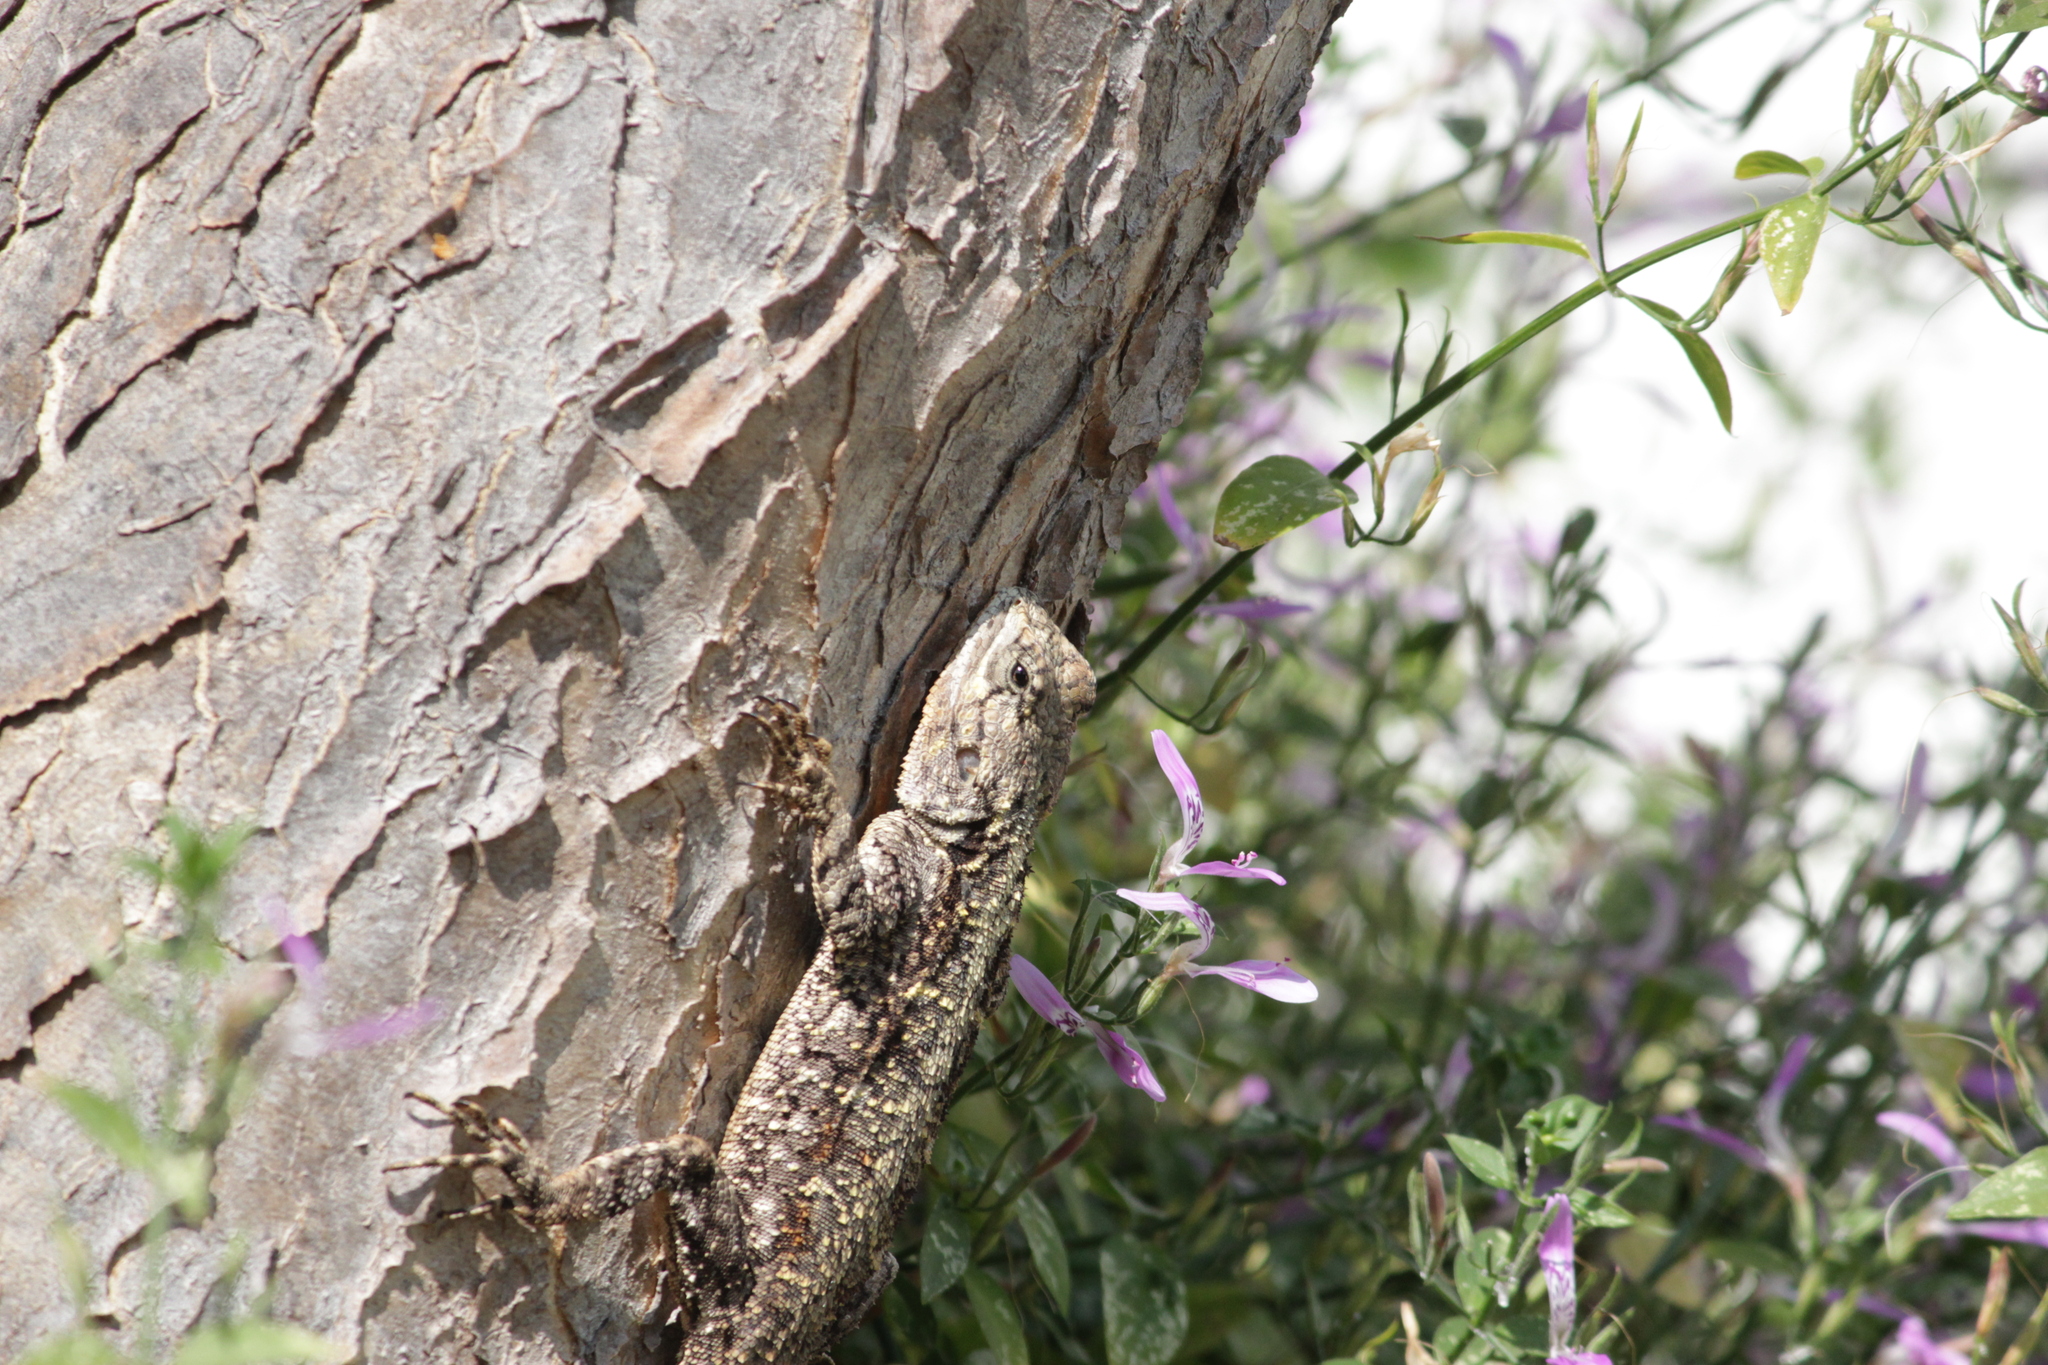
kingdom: Animalia
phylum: Chordata
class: Squamata
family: Agamidae
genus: Acanthocercus
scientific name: Acanthocercus atricollis
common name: Southern tree agama
